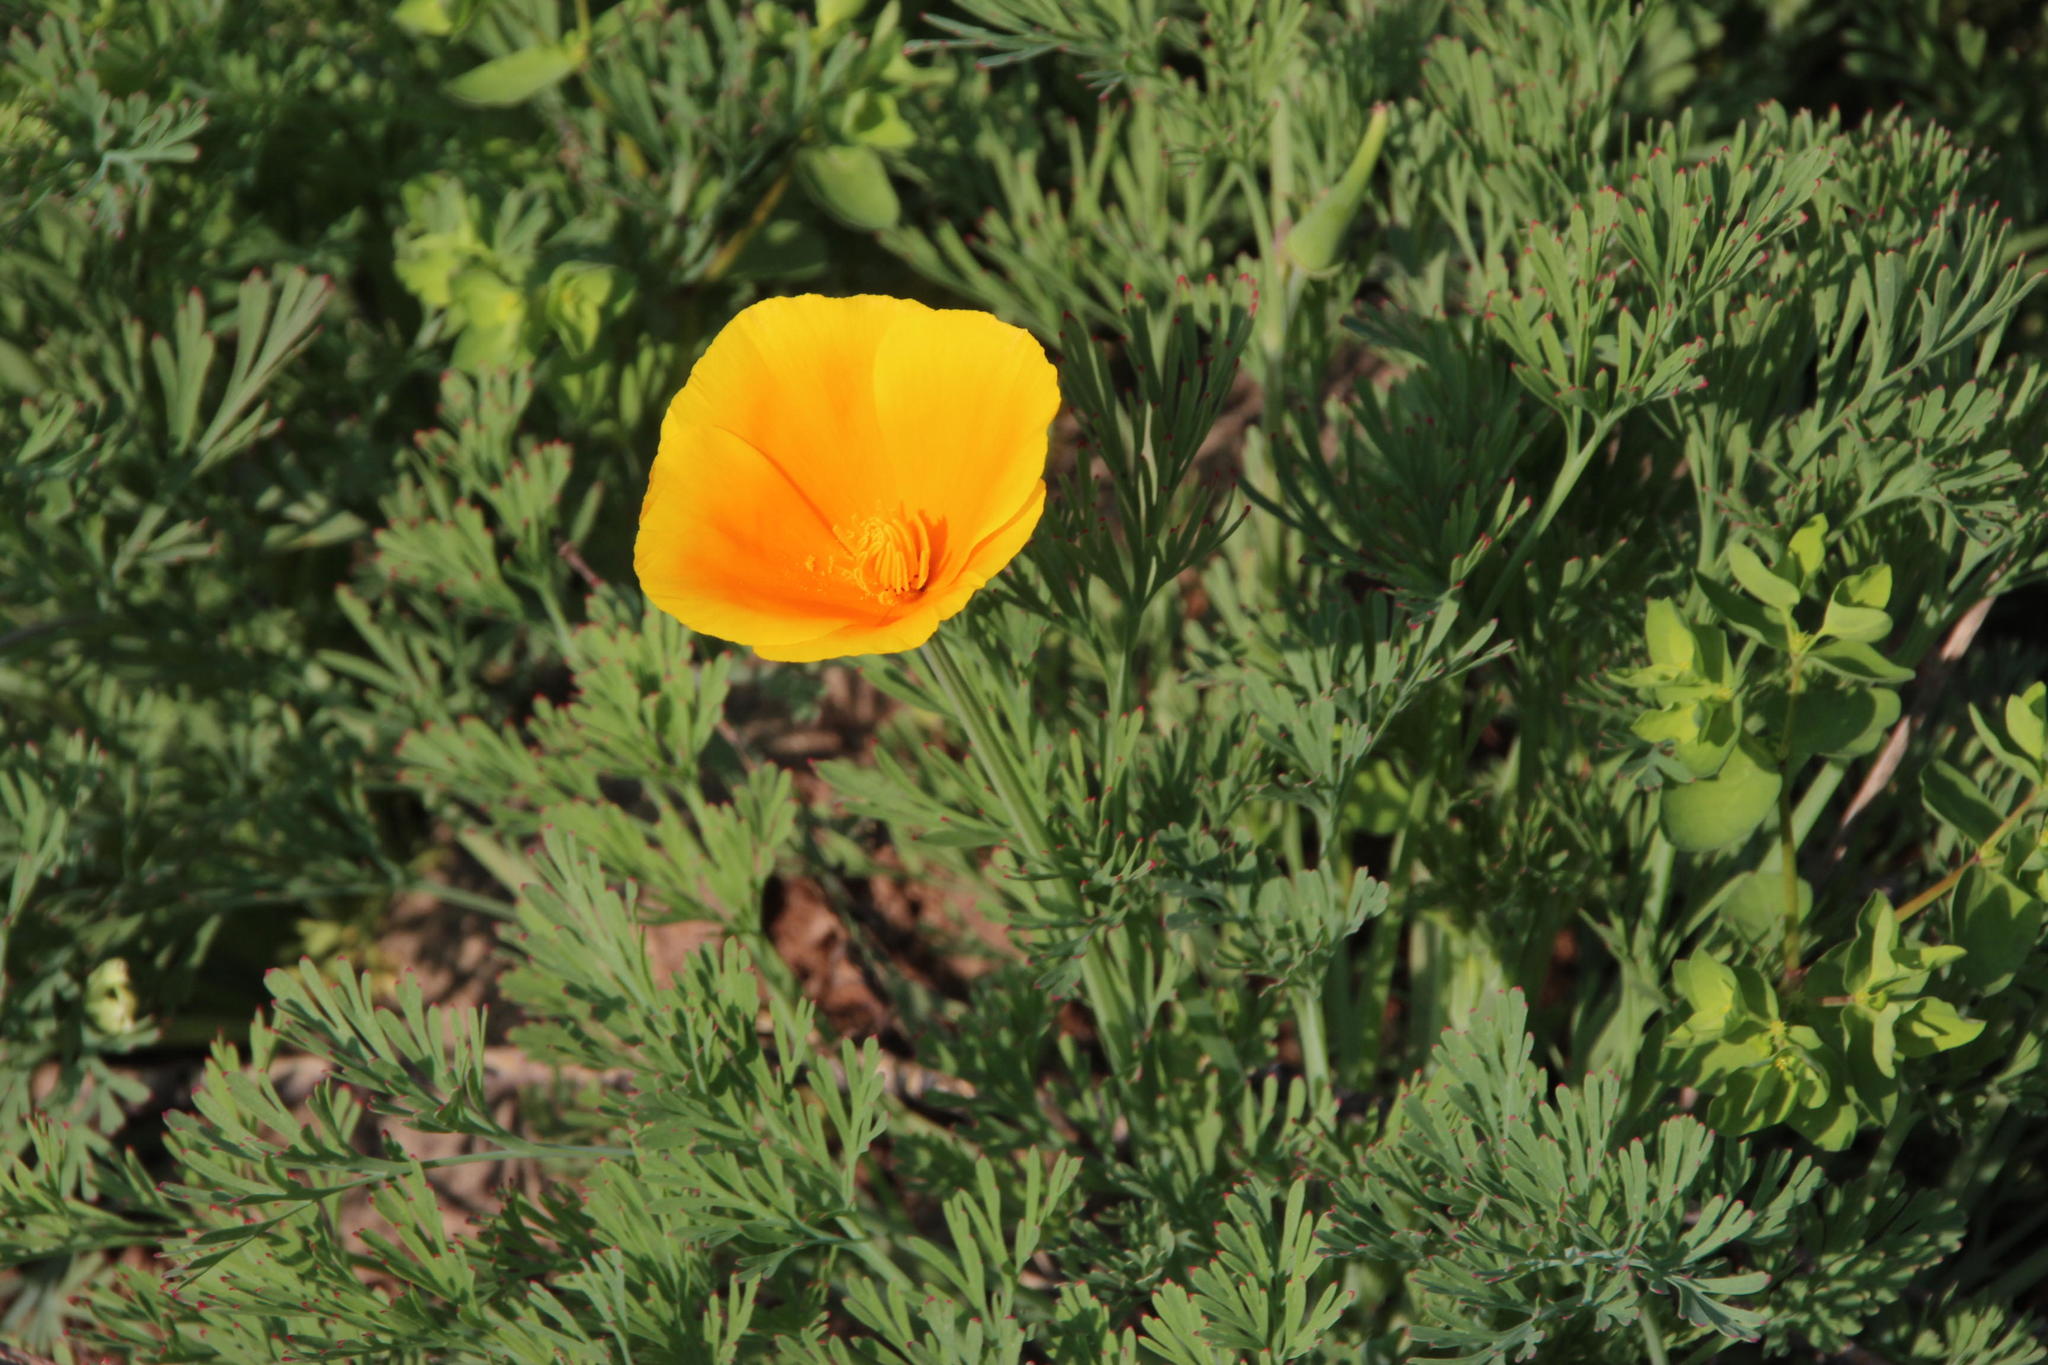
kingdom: Plantae
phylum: Tracheophyta
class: Magnoliopsida
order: Ranunculales
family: Papaveraceae
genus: Eschscholzia
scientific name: Eschscholzia californica
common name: California poppy
